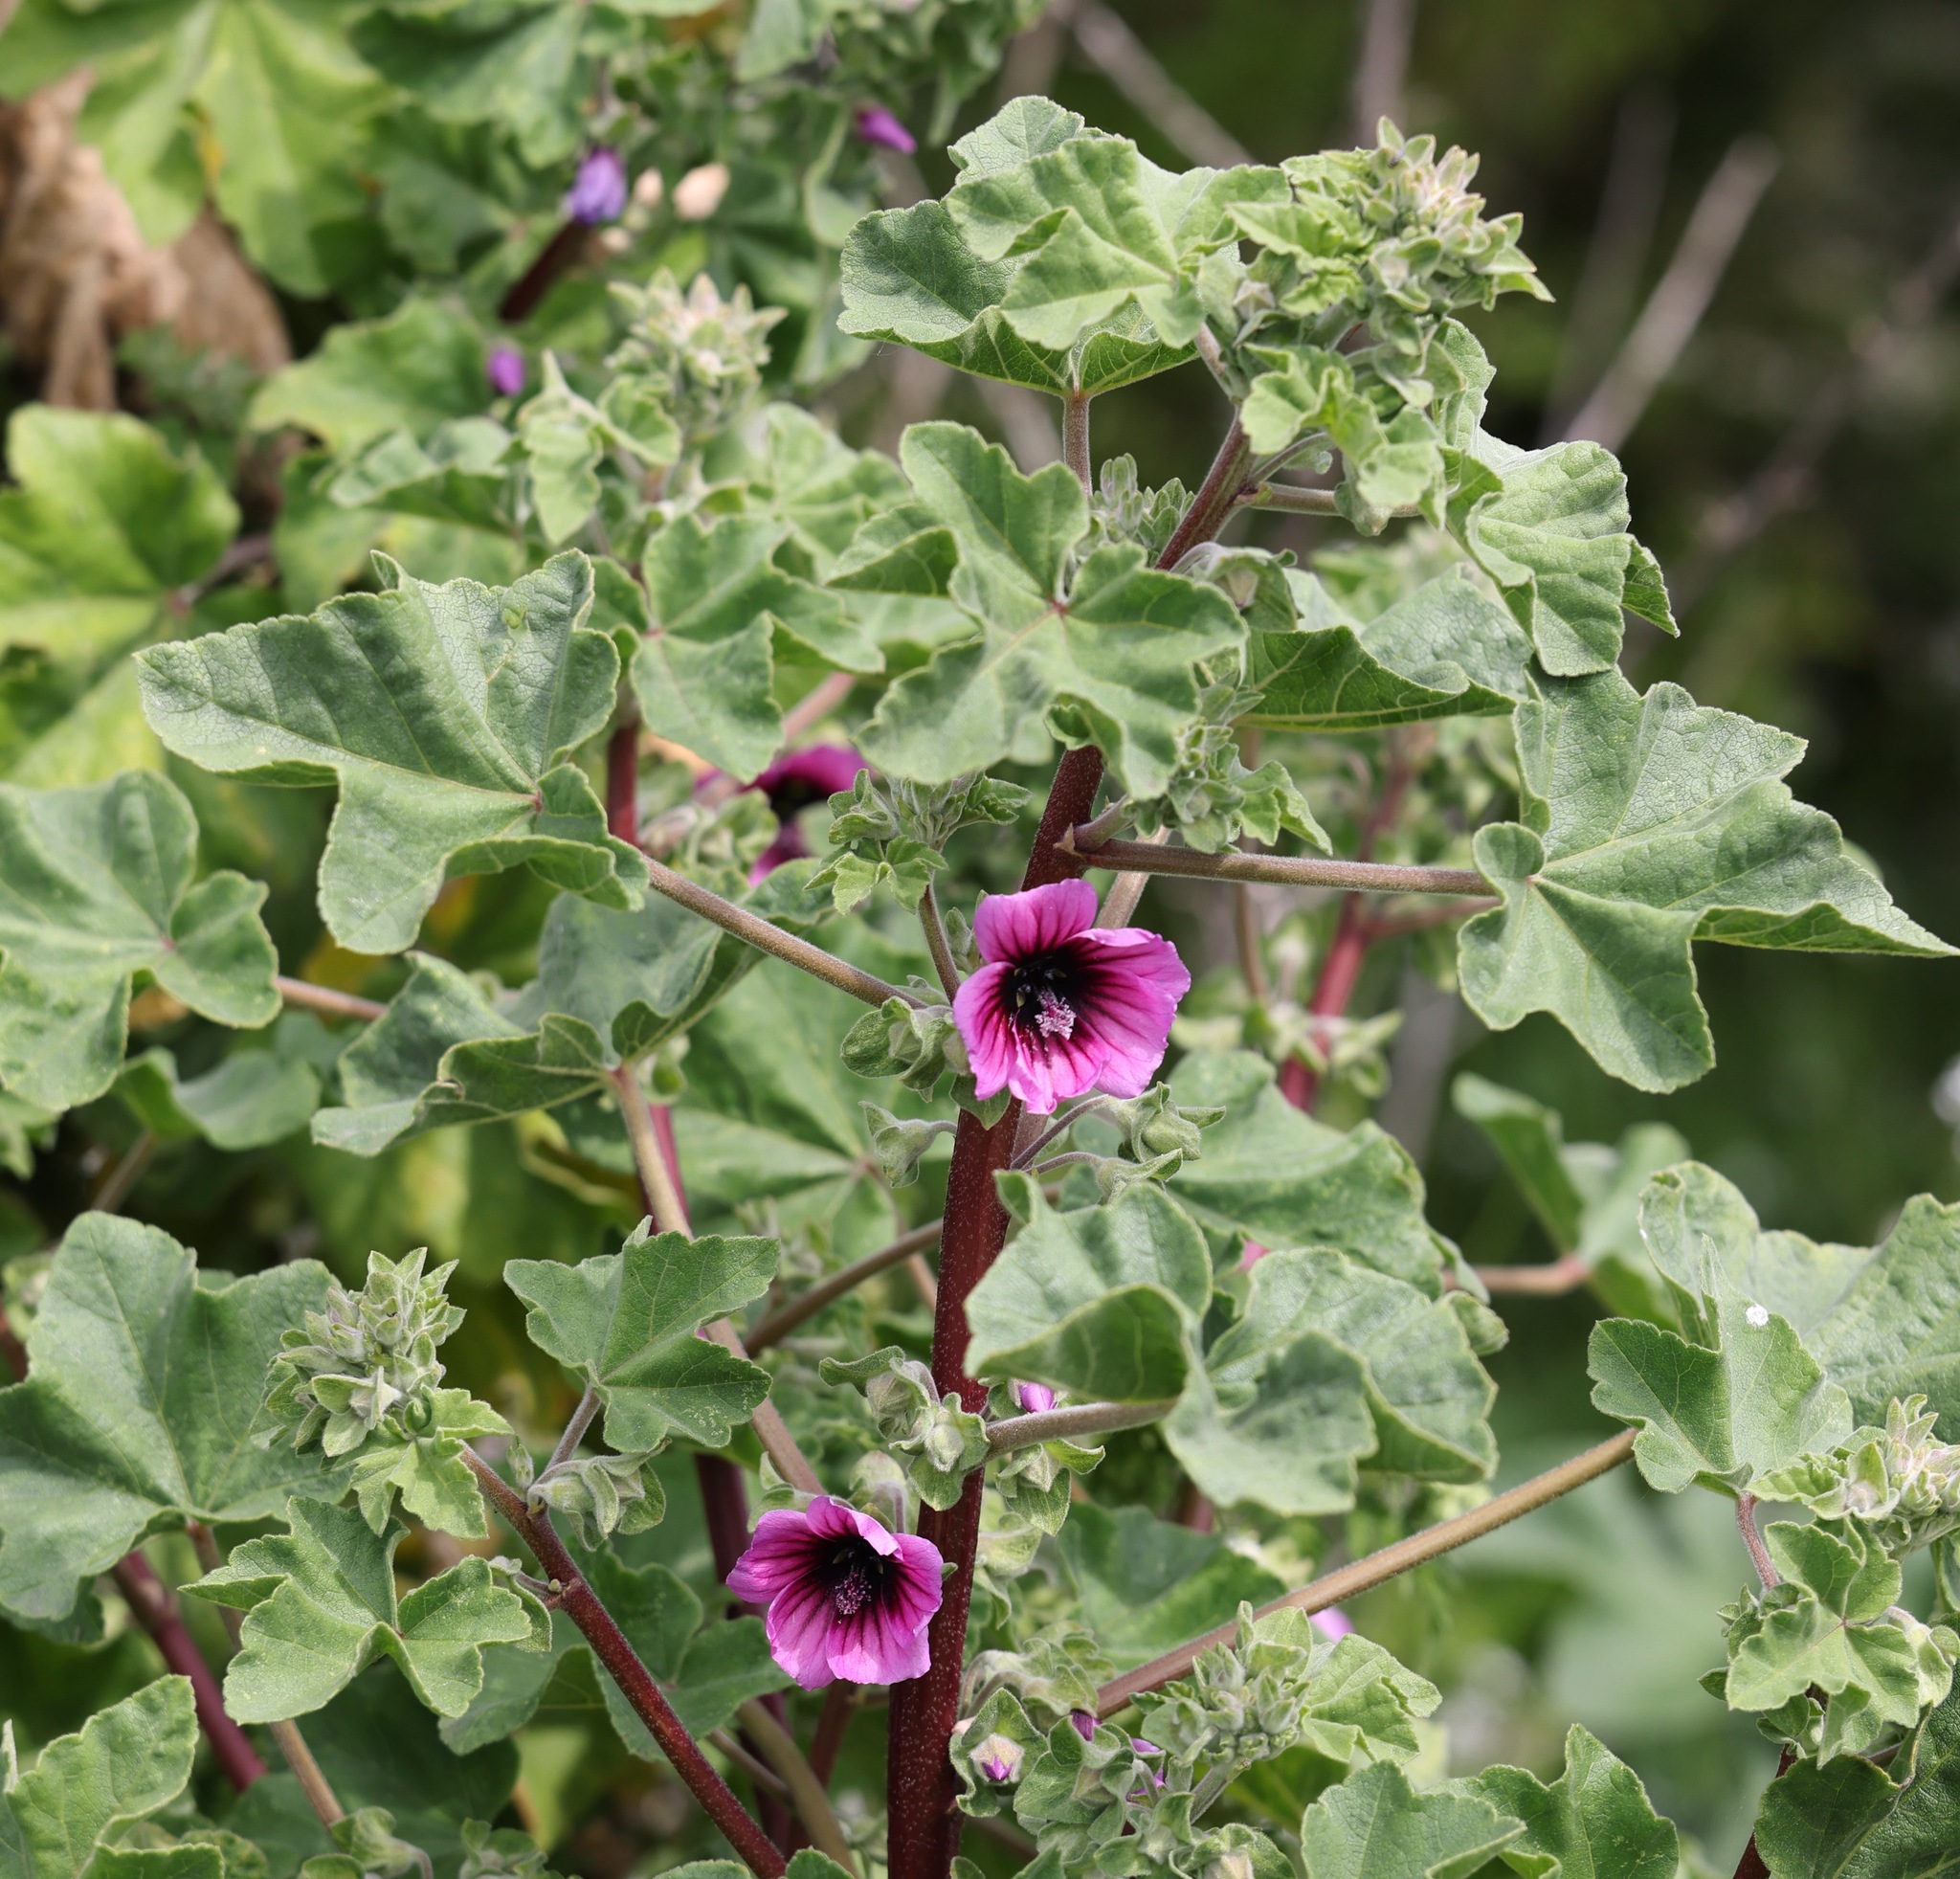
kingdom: Plantae
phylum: Tracheophyta
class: Magnoliopsida
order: Malvales
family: Malvaceae
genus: Malva
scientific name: Malva arborea
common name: Tree mallow
